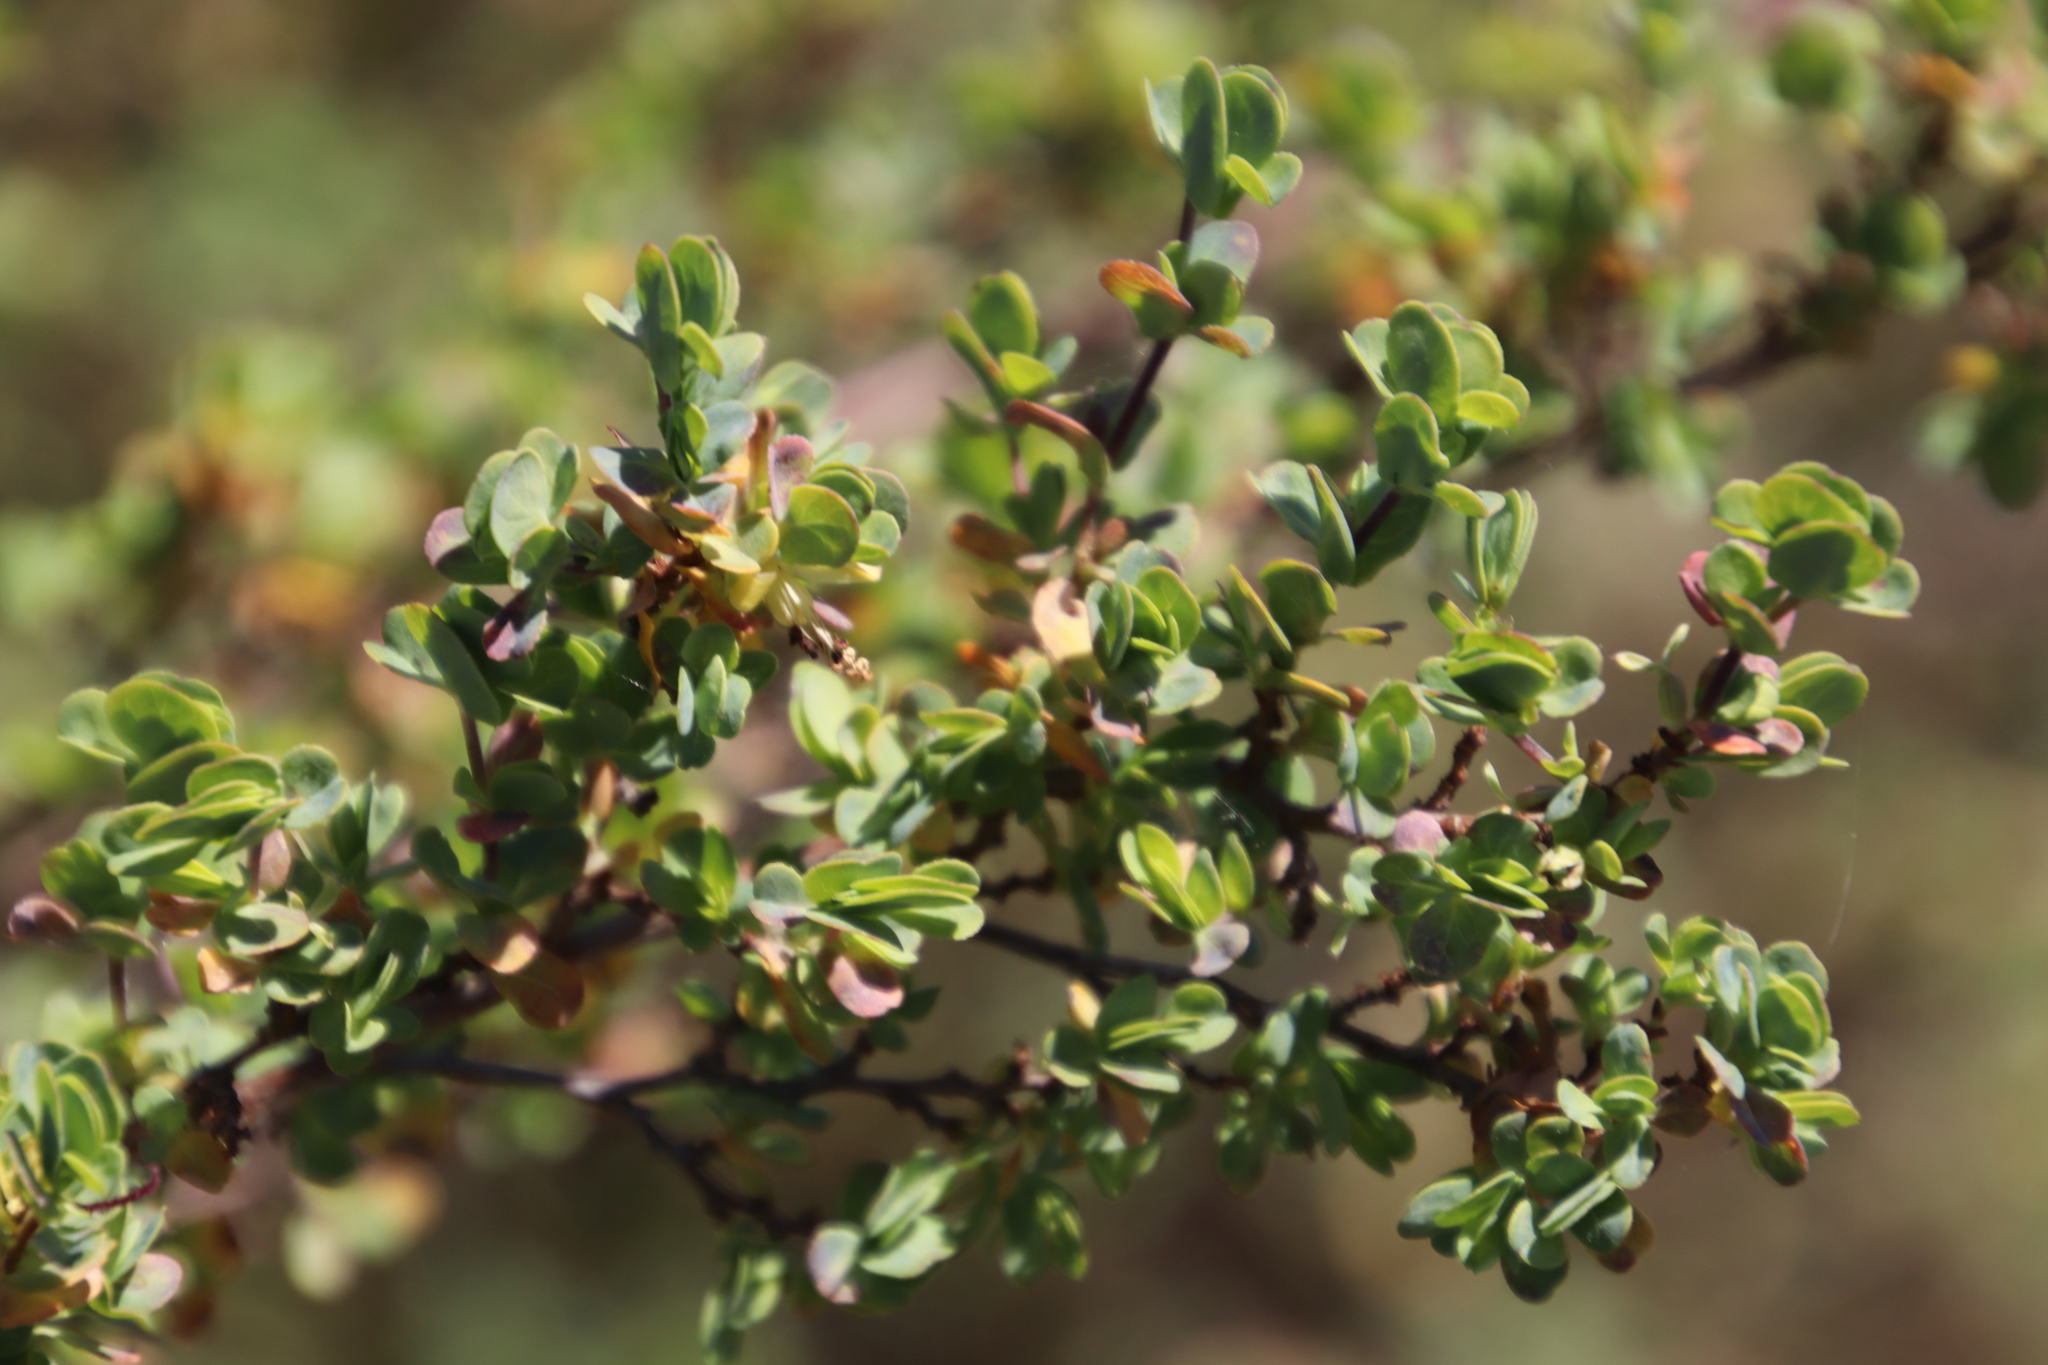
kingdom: Plantae
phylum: Tracheophyta
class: Magnoliopsida
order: Rosales
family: Rosaceae
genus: Cliffortia
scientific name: Cliffortia obcordata
